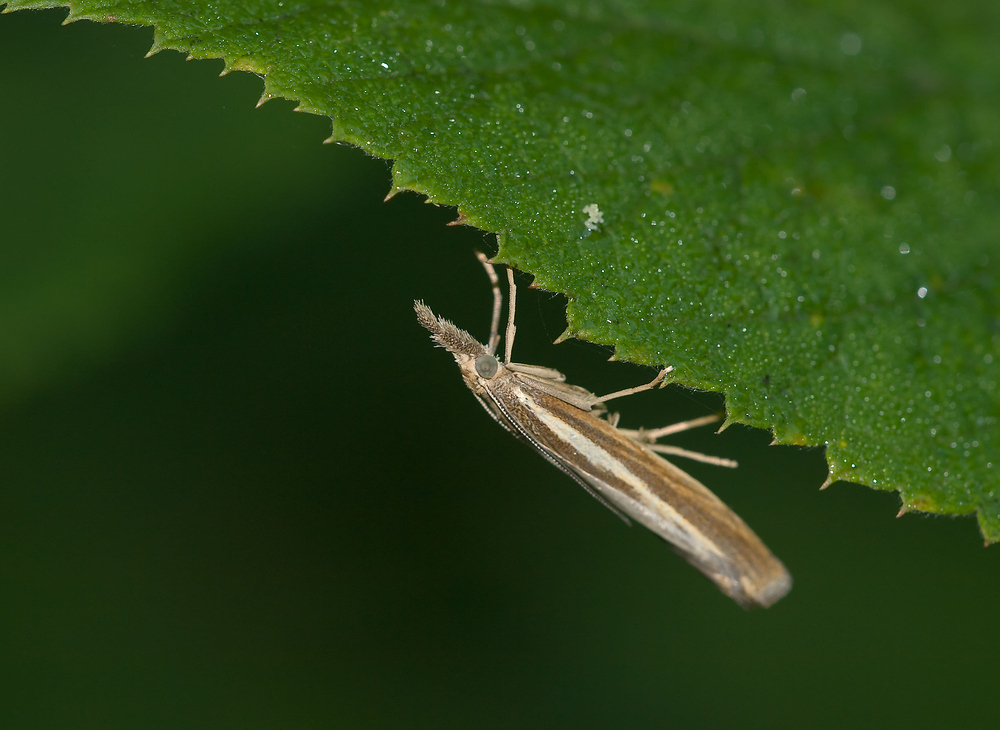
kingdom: Animalia
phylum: Arthropoda
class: Insecta
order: Lepidoptera
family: Crambidae
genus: Agriphila
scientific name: Agriphila tristellus
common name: Common grass-veneer
